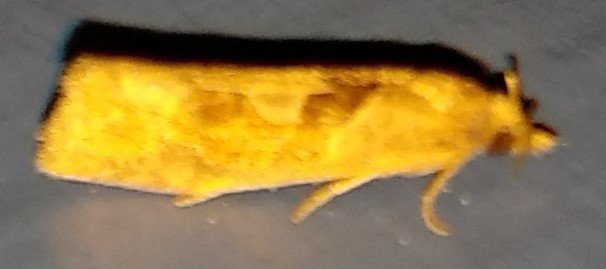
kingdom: Animalia
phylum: Arthropoda
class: Insecta
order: Lepidoptera
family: Tortricidae
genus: Pelochrista
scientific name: Pelochrista similiana
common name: Similar eucosma
